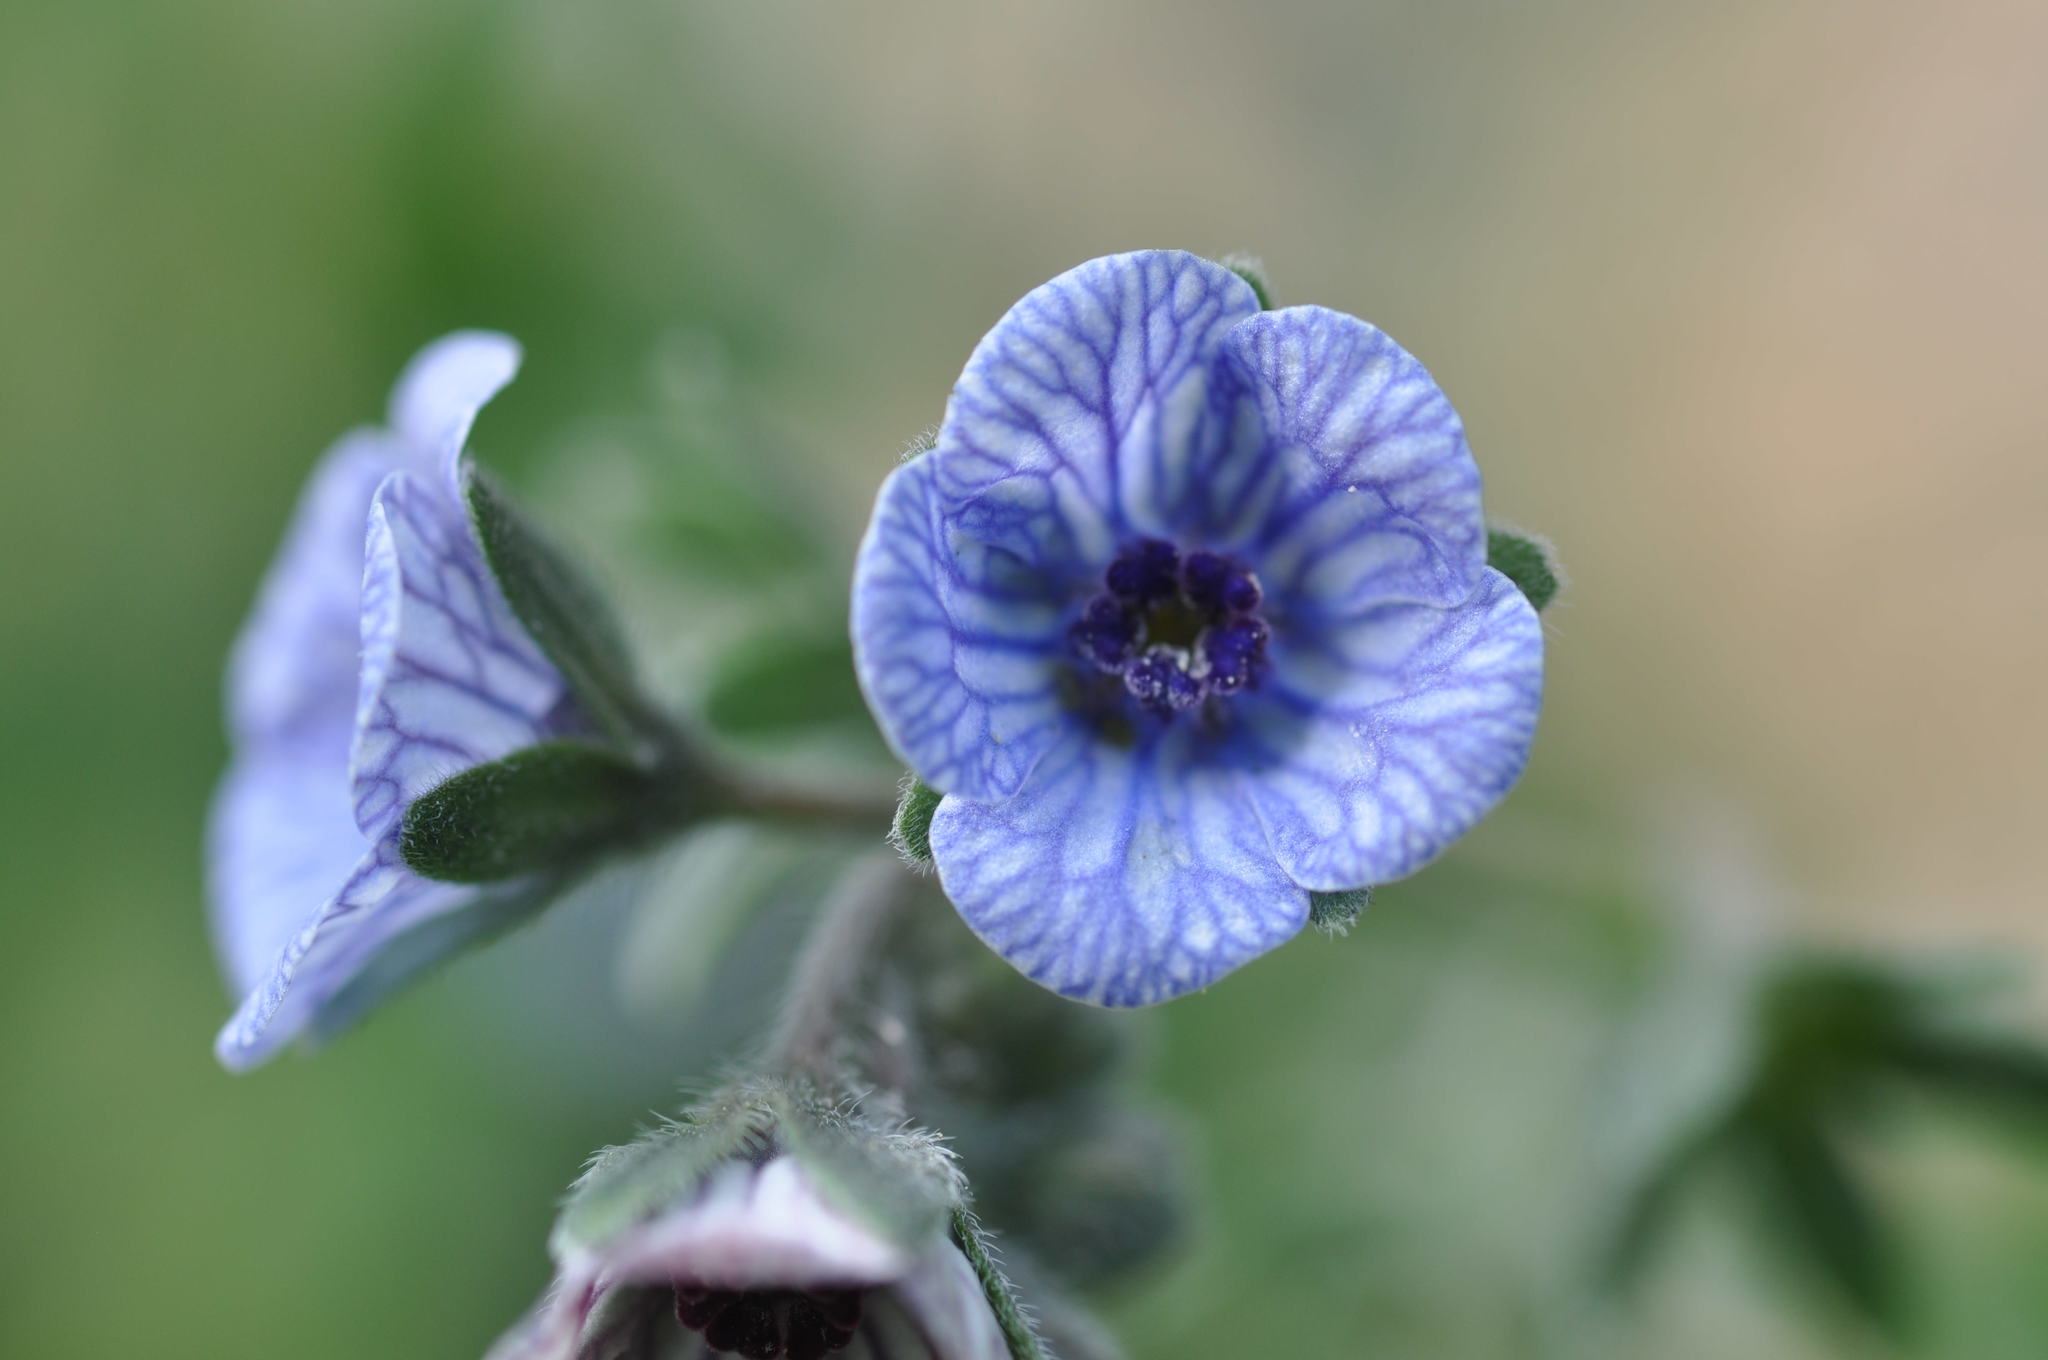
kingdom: Plantae
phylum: Tracheophyta
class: Magnoliopsida
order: Boraginales
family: Boraginaceae
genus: Cynoglossum
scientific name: Cynoglossum creticum
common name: Blue hound's tongue
